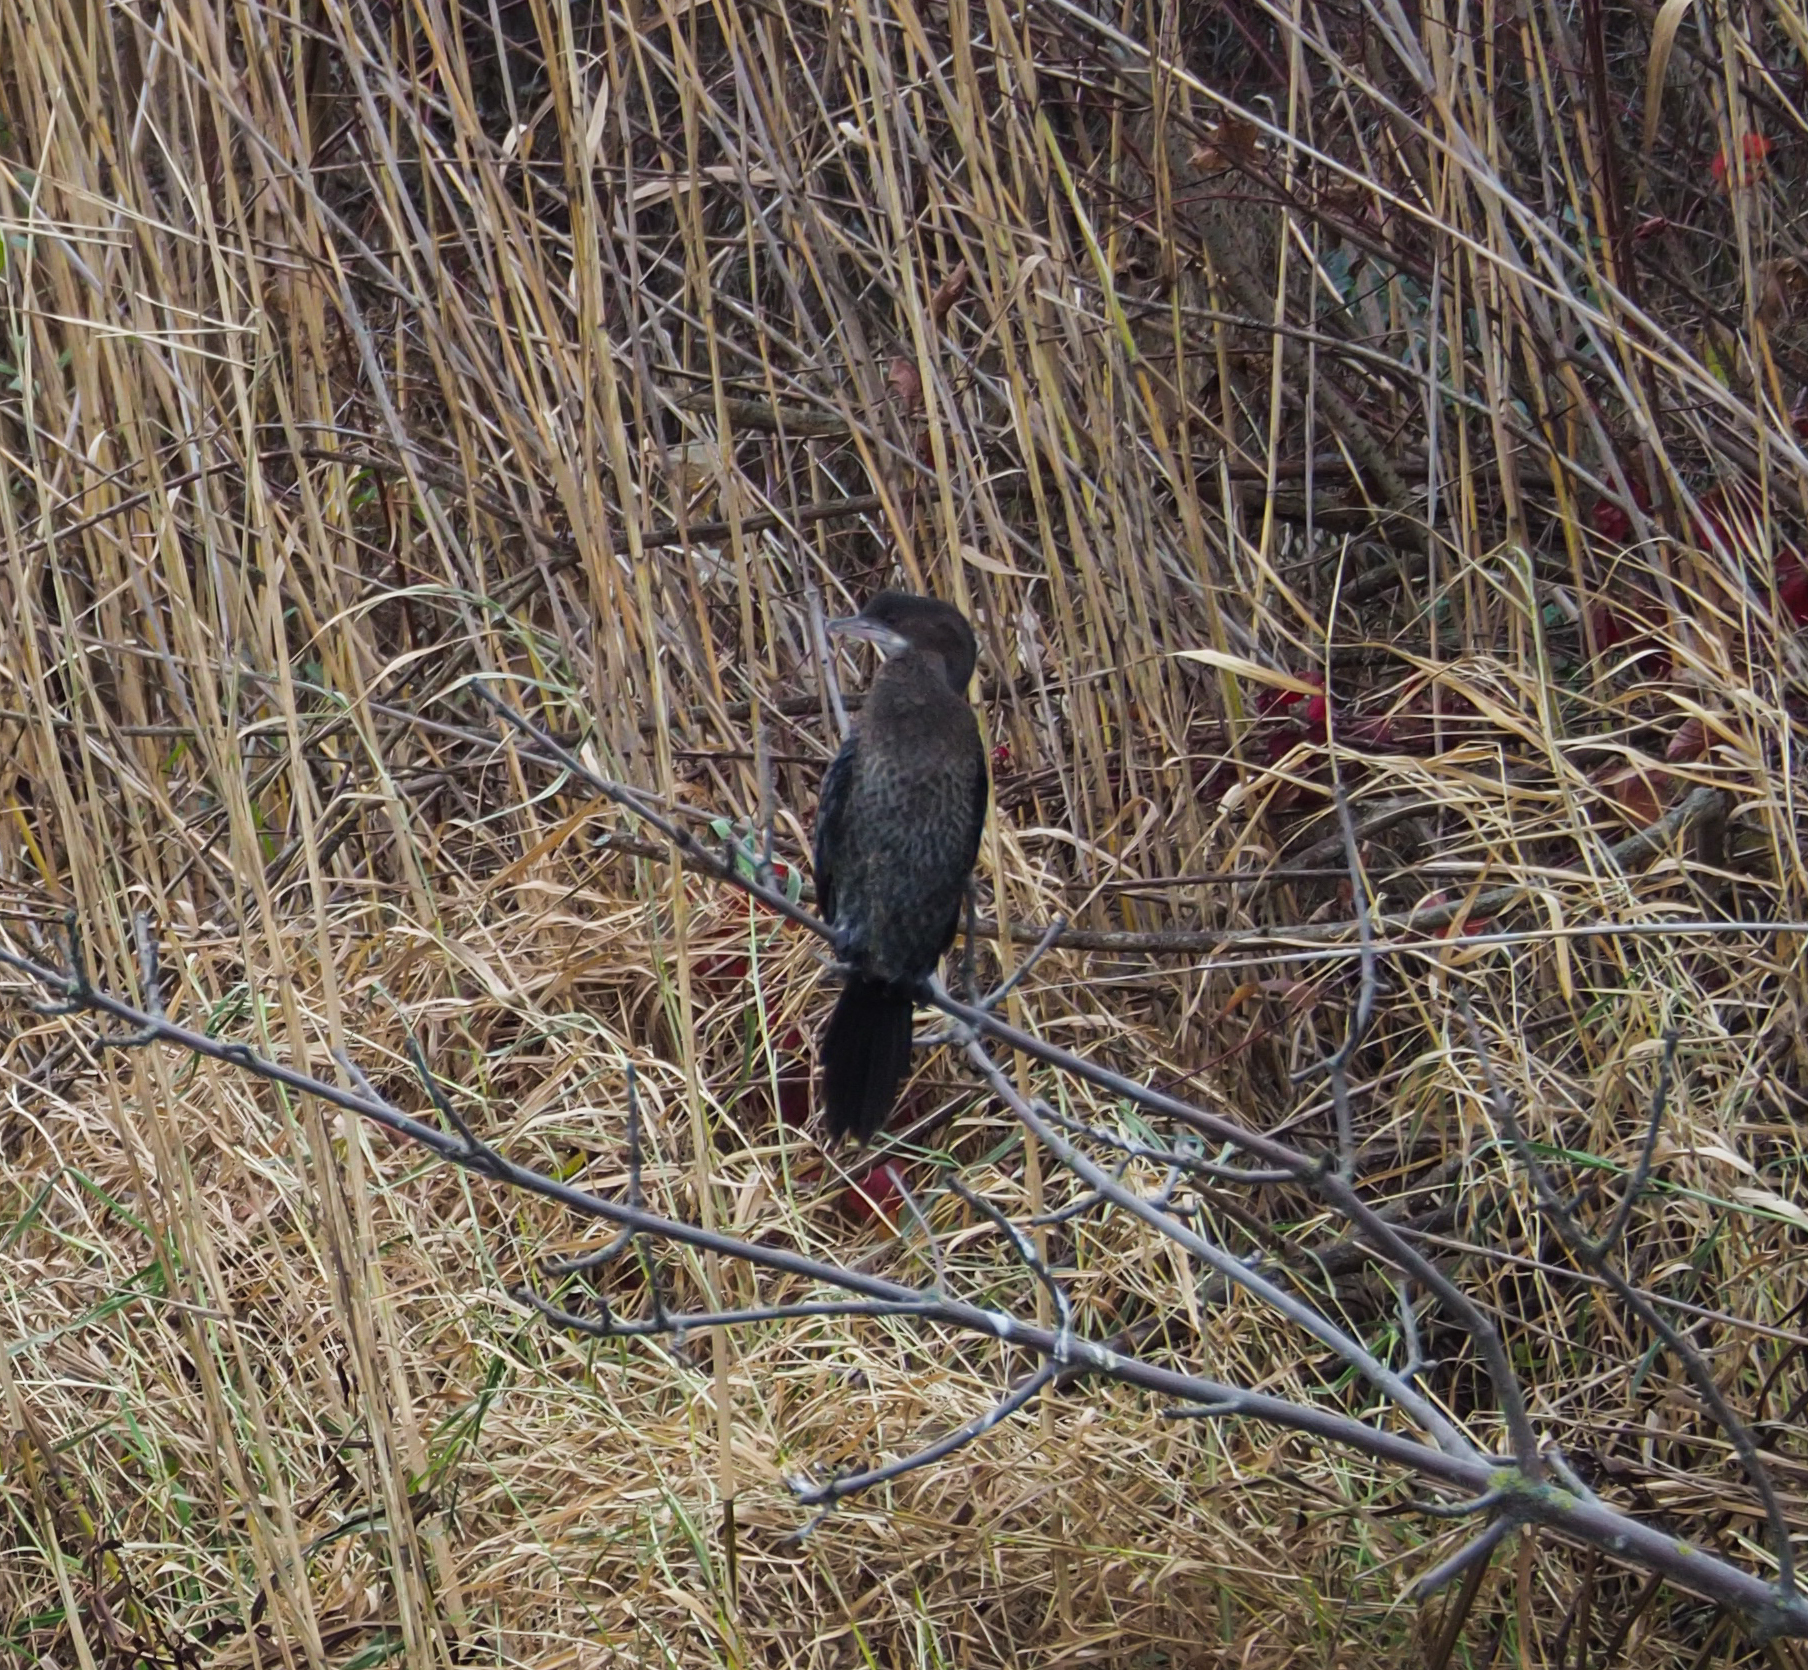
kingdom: Animalia
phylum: Chordata
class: Aves
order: Suliformes
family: Phalacrocoracidae
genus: Microcarbo
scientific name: Microcarbo pygmaeus
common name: Pygmy cormorant
